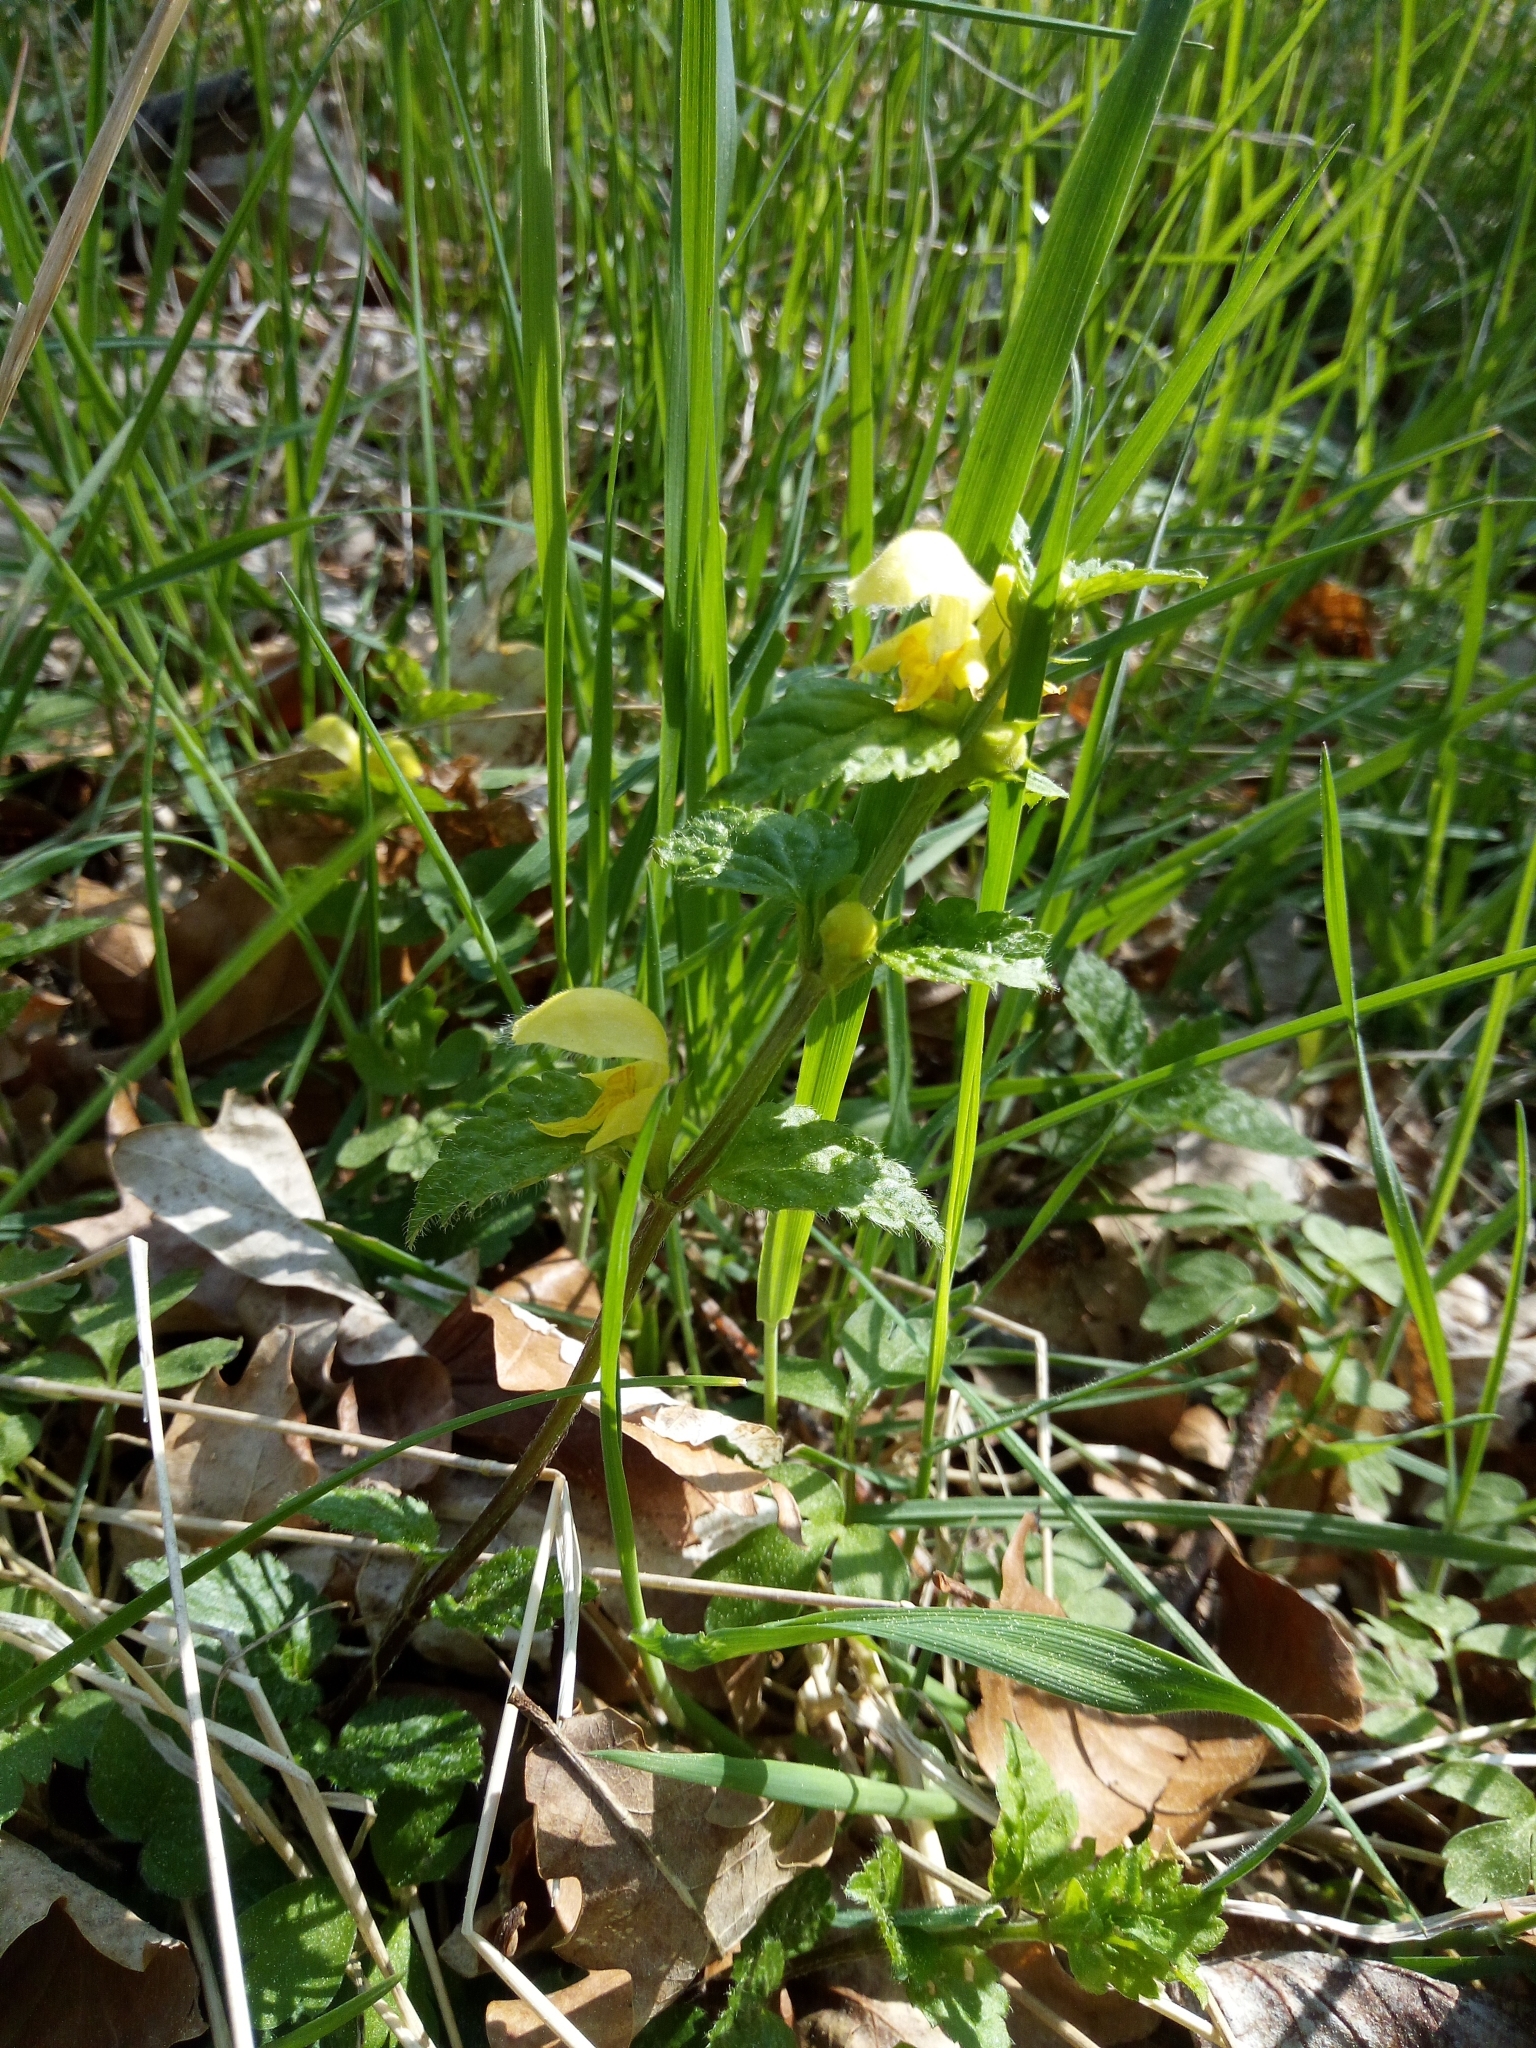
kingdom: Plantae
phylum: Tracheophyta
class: Magnoliopsida
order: Lamiales
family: Lamiaceae
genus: Lamium
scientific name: Lamium galeobdolon
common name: Yellow archangel
